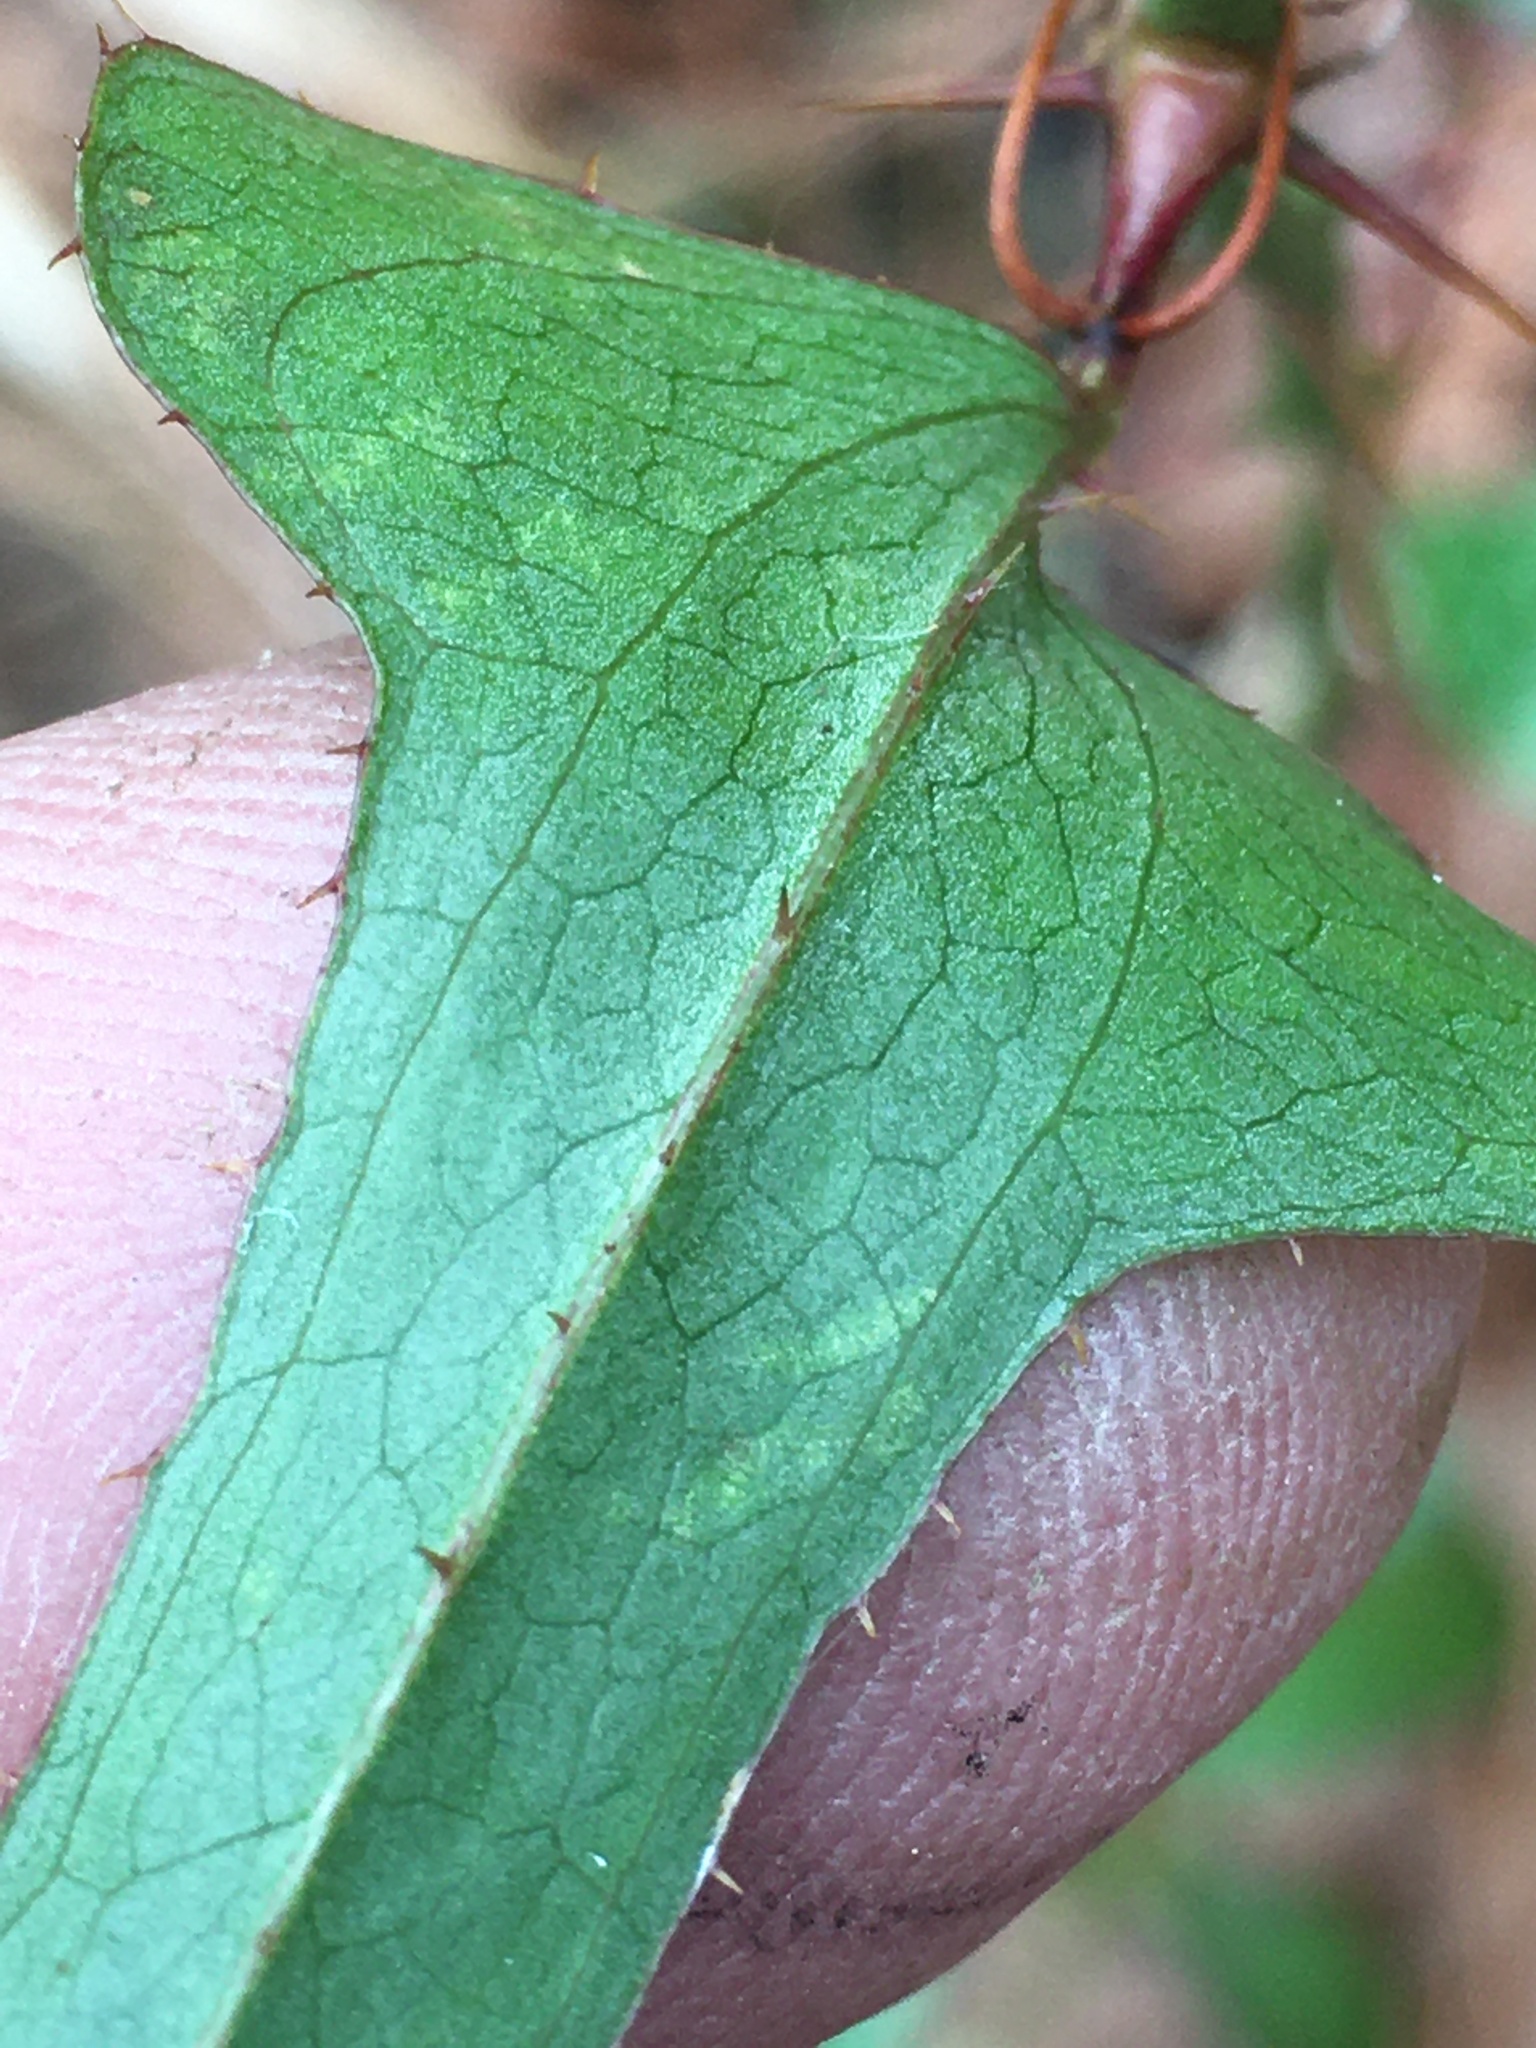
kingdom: Plantae
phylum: Tracheophyta
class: Liliopsida
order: Liliales
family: Smilacaceae
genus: Smilax
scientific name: Smilax bona-nox
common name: Catbrier
